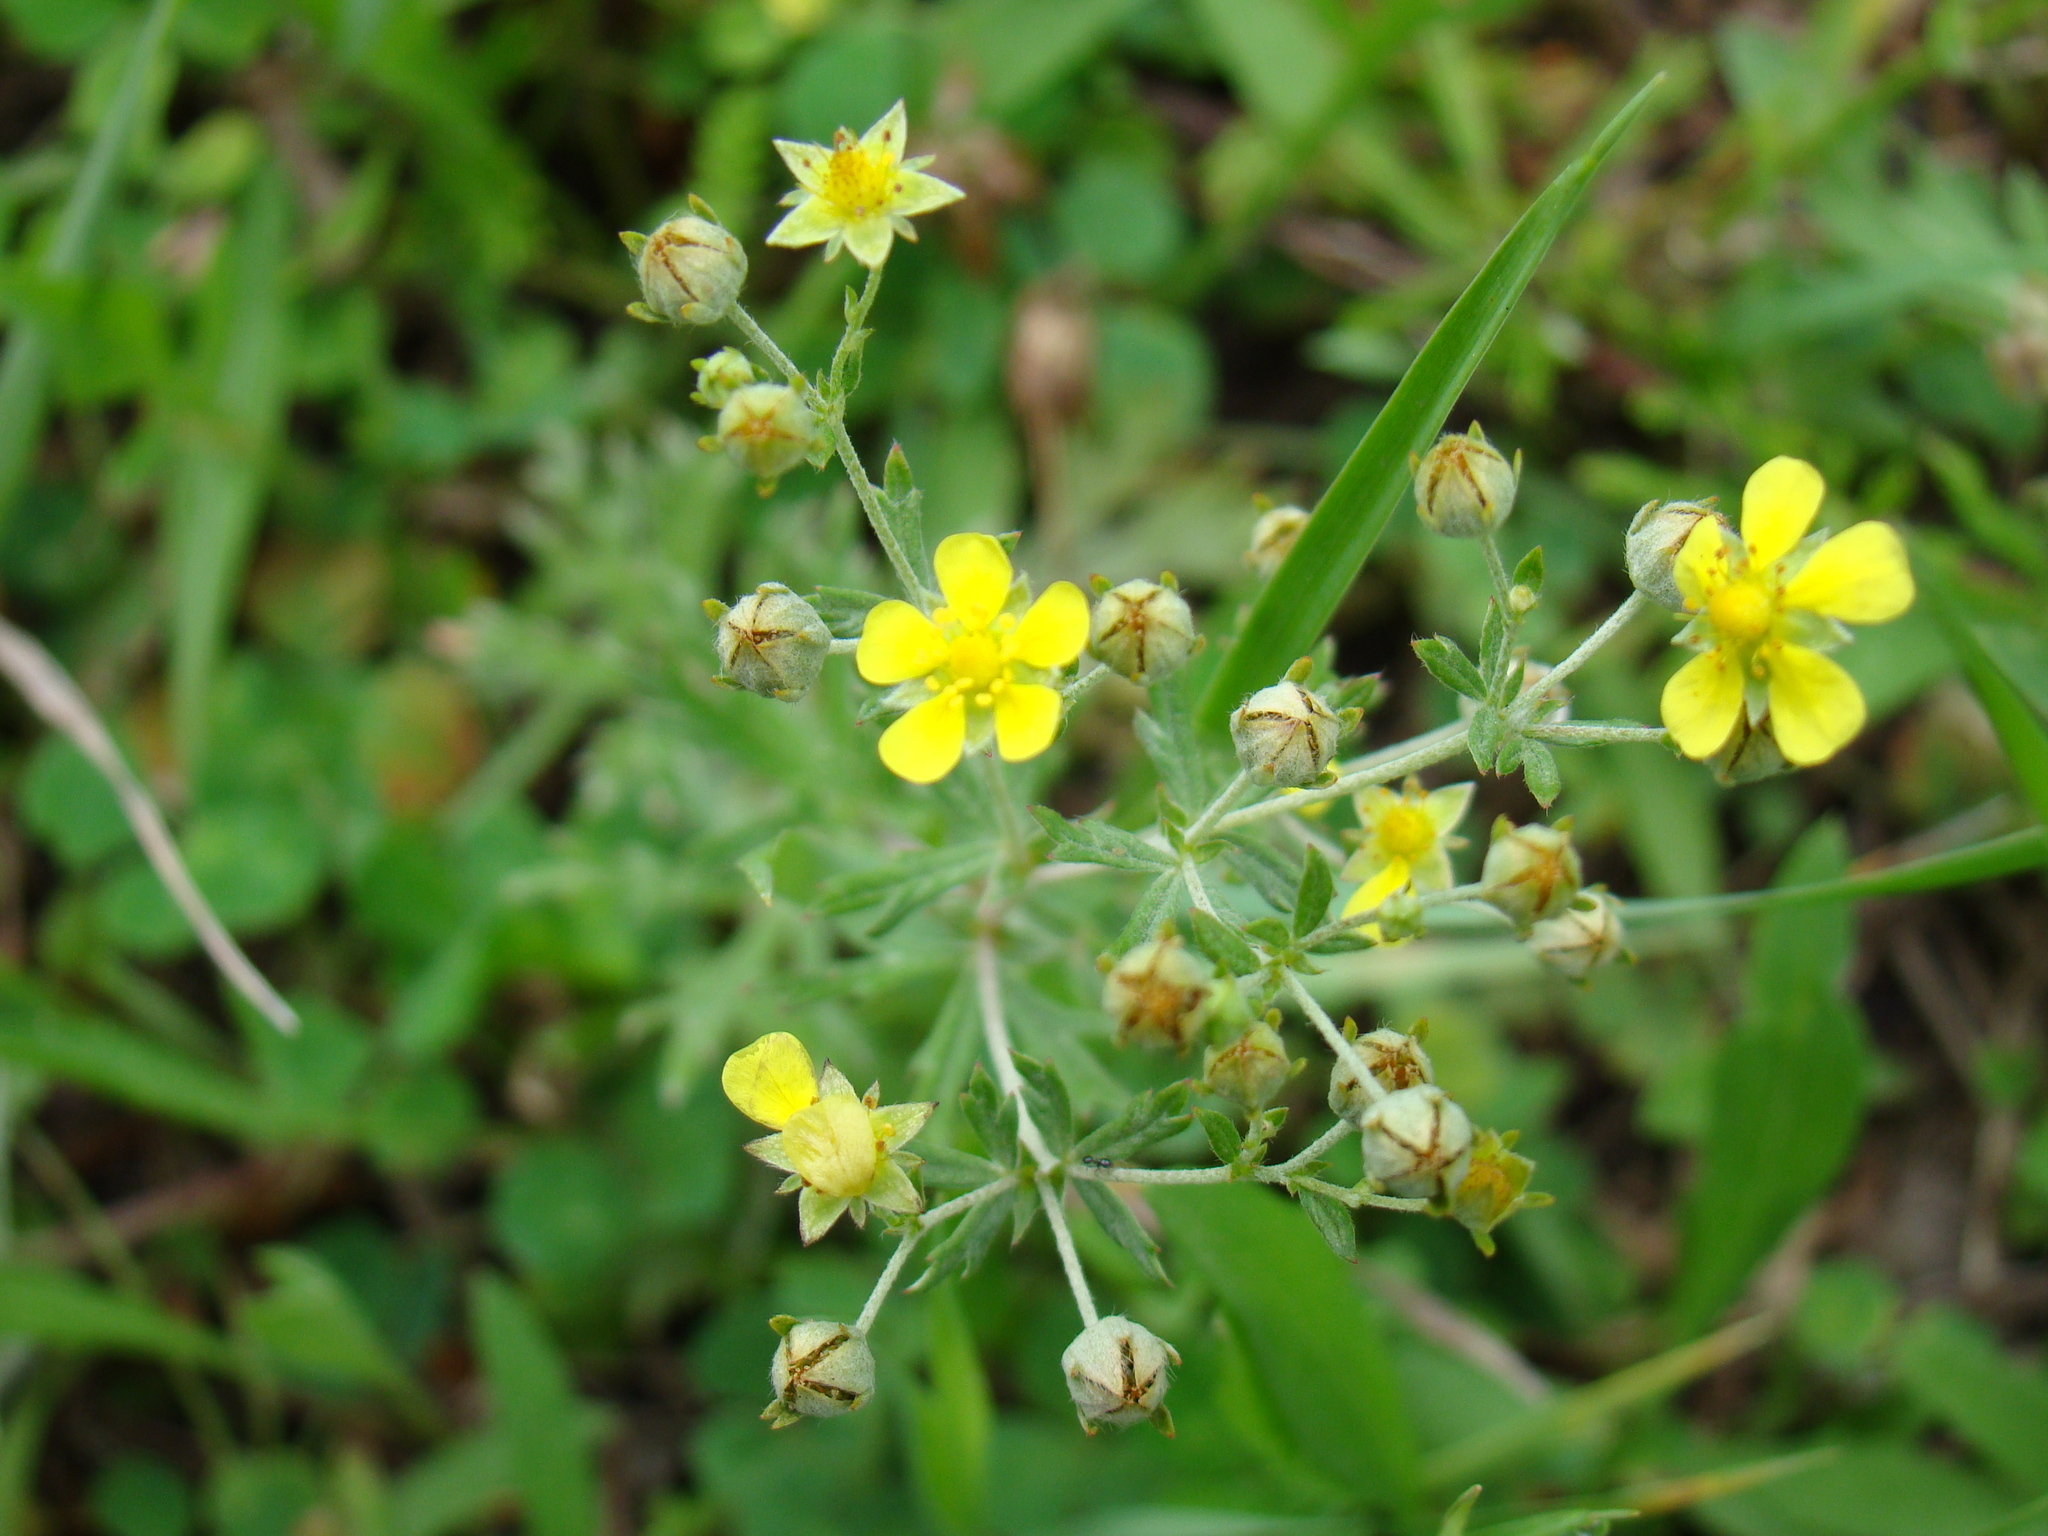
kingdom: Plantae
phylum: Tracheophyta
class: Magnoliopsida
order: Rosales
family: Rosaceae
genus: Potentilla
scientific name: Potentilla argentea
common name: Hoary cinquefoil
